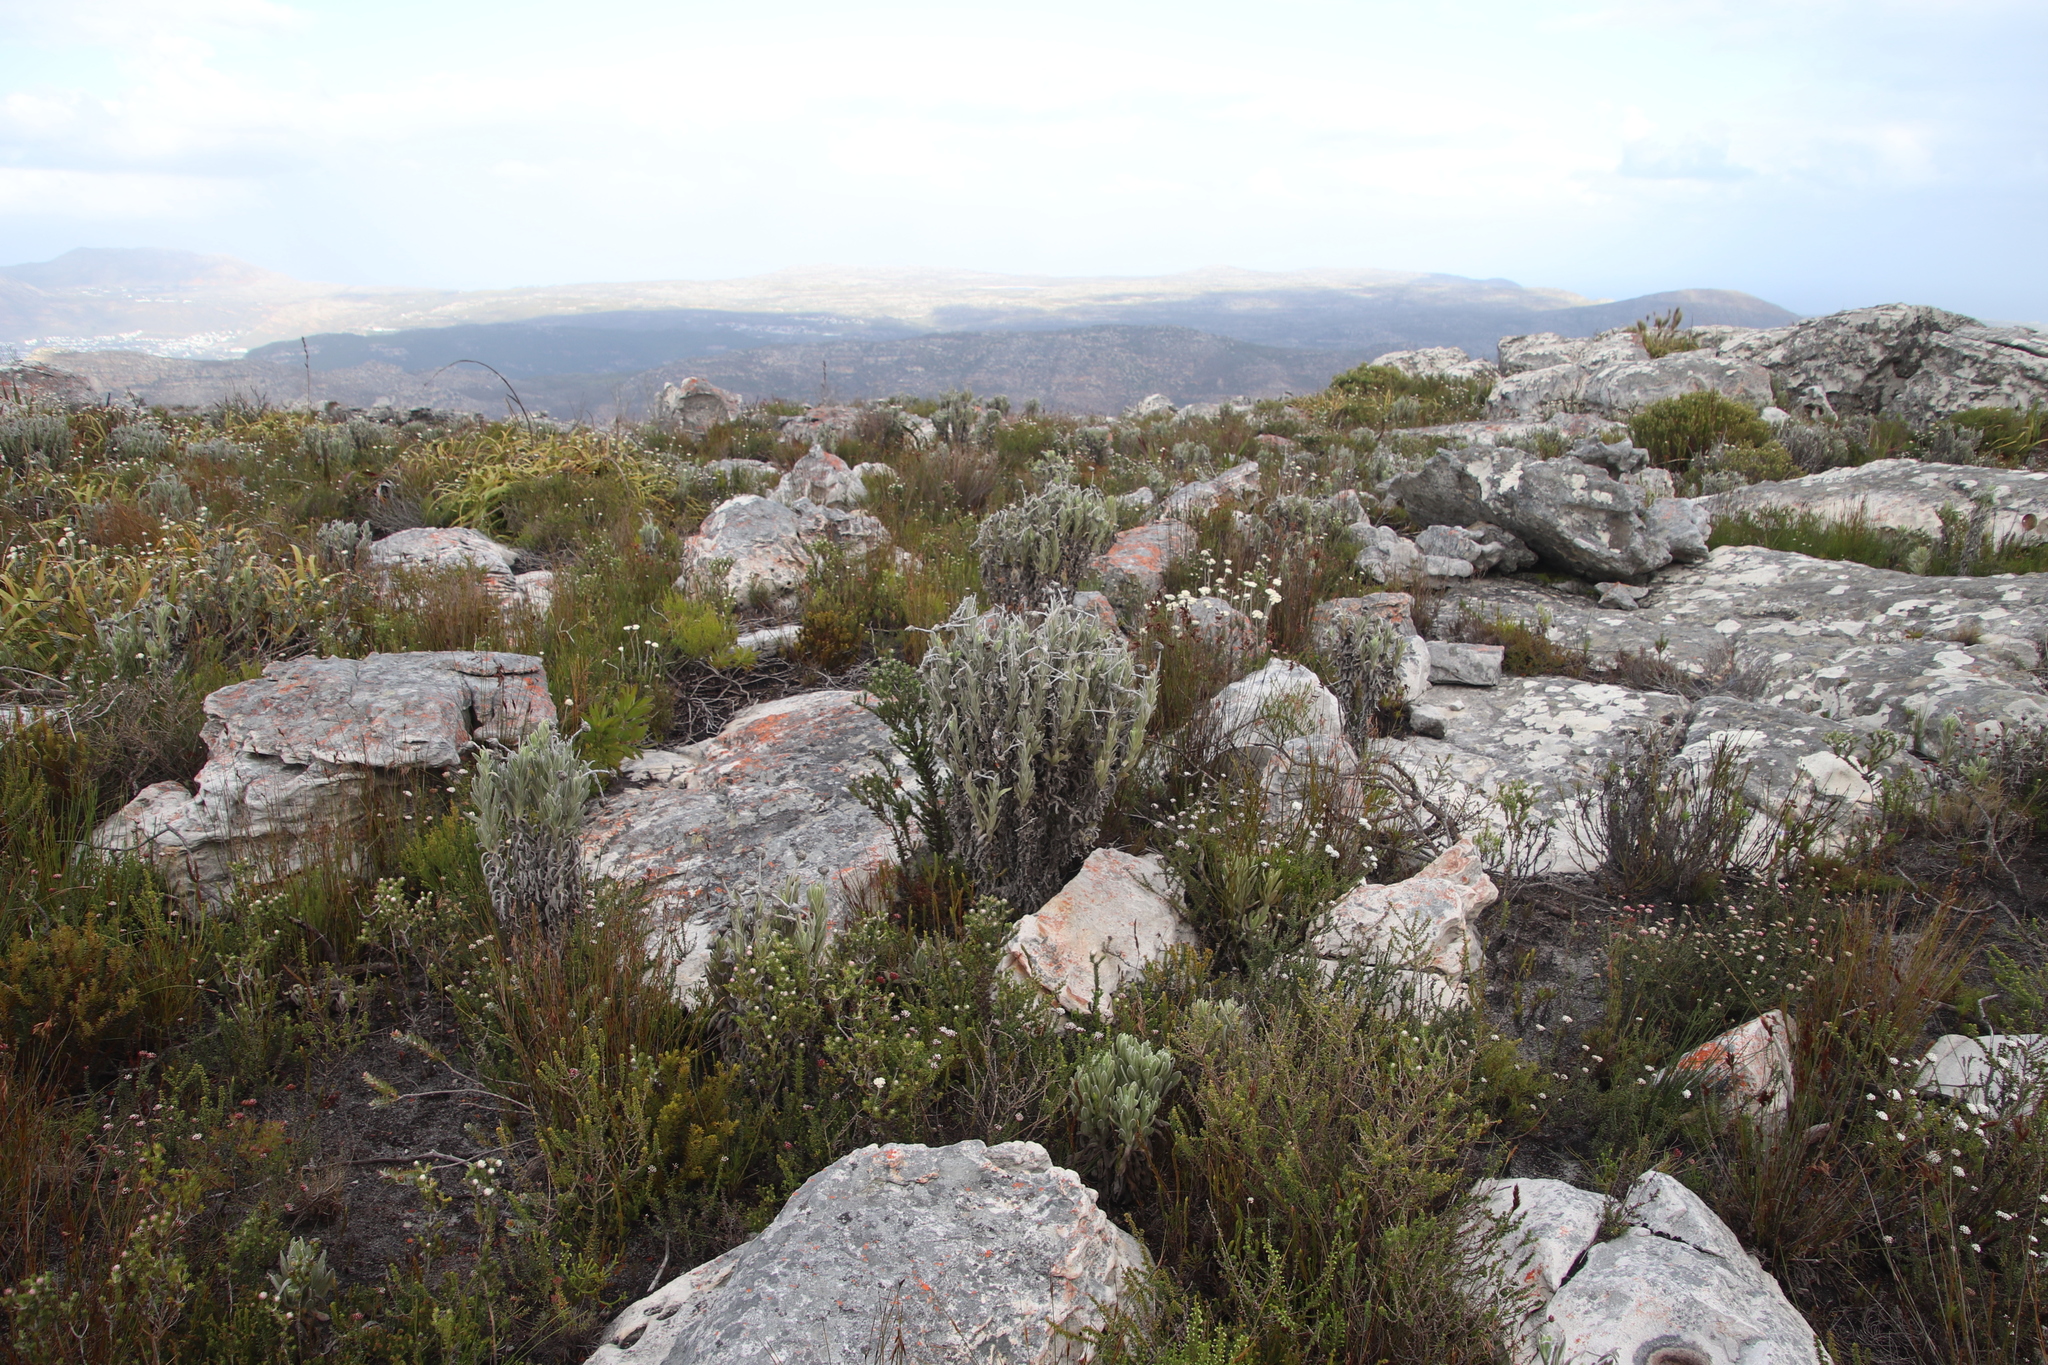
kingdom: Plantae
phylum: Tracheophyta
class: Magnoliopsida
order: Asterales
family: Asteraceae
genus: Syncarpha
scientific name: Syncarpha vestita
